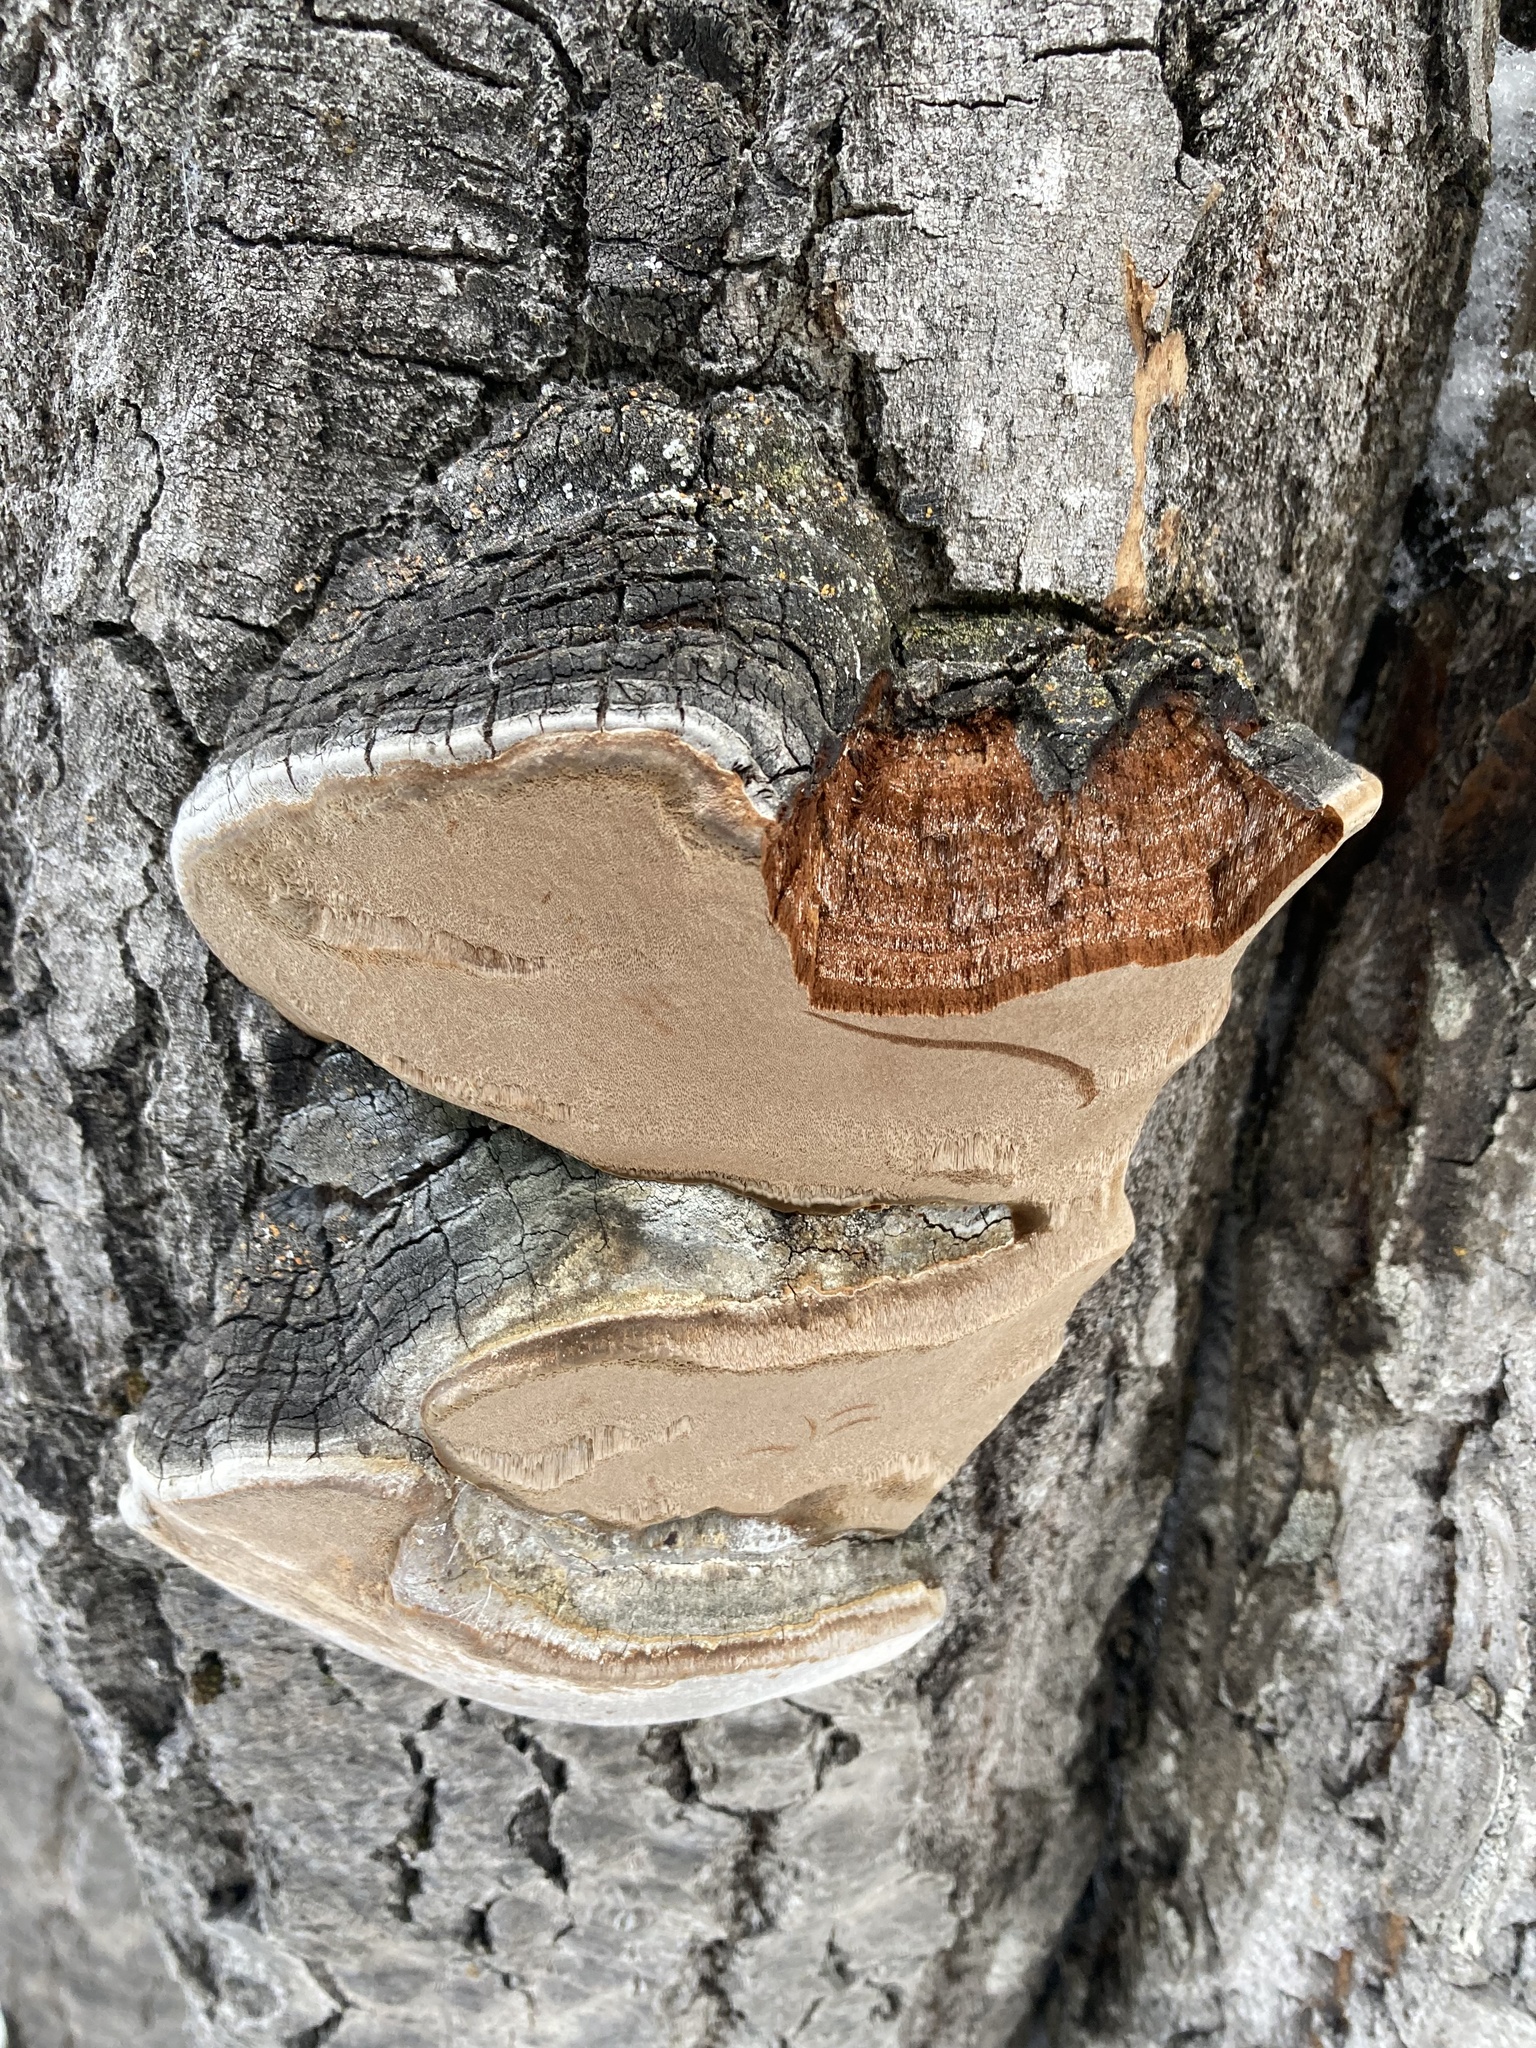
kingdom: Fungi
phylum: Basidiomycota
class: Agaricomycetes
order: Hymenochaetales
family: Hymenochaetaceae
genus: Phellinus
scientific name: Phellinus tremulae
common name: Aspen bracket
